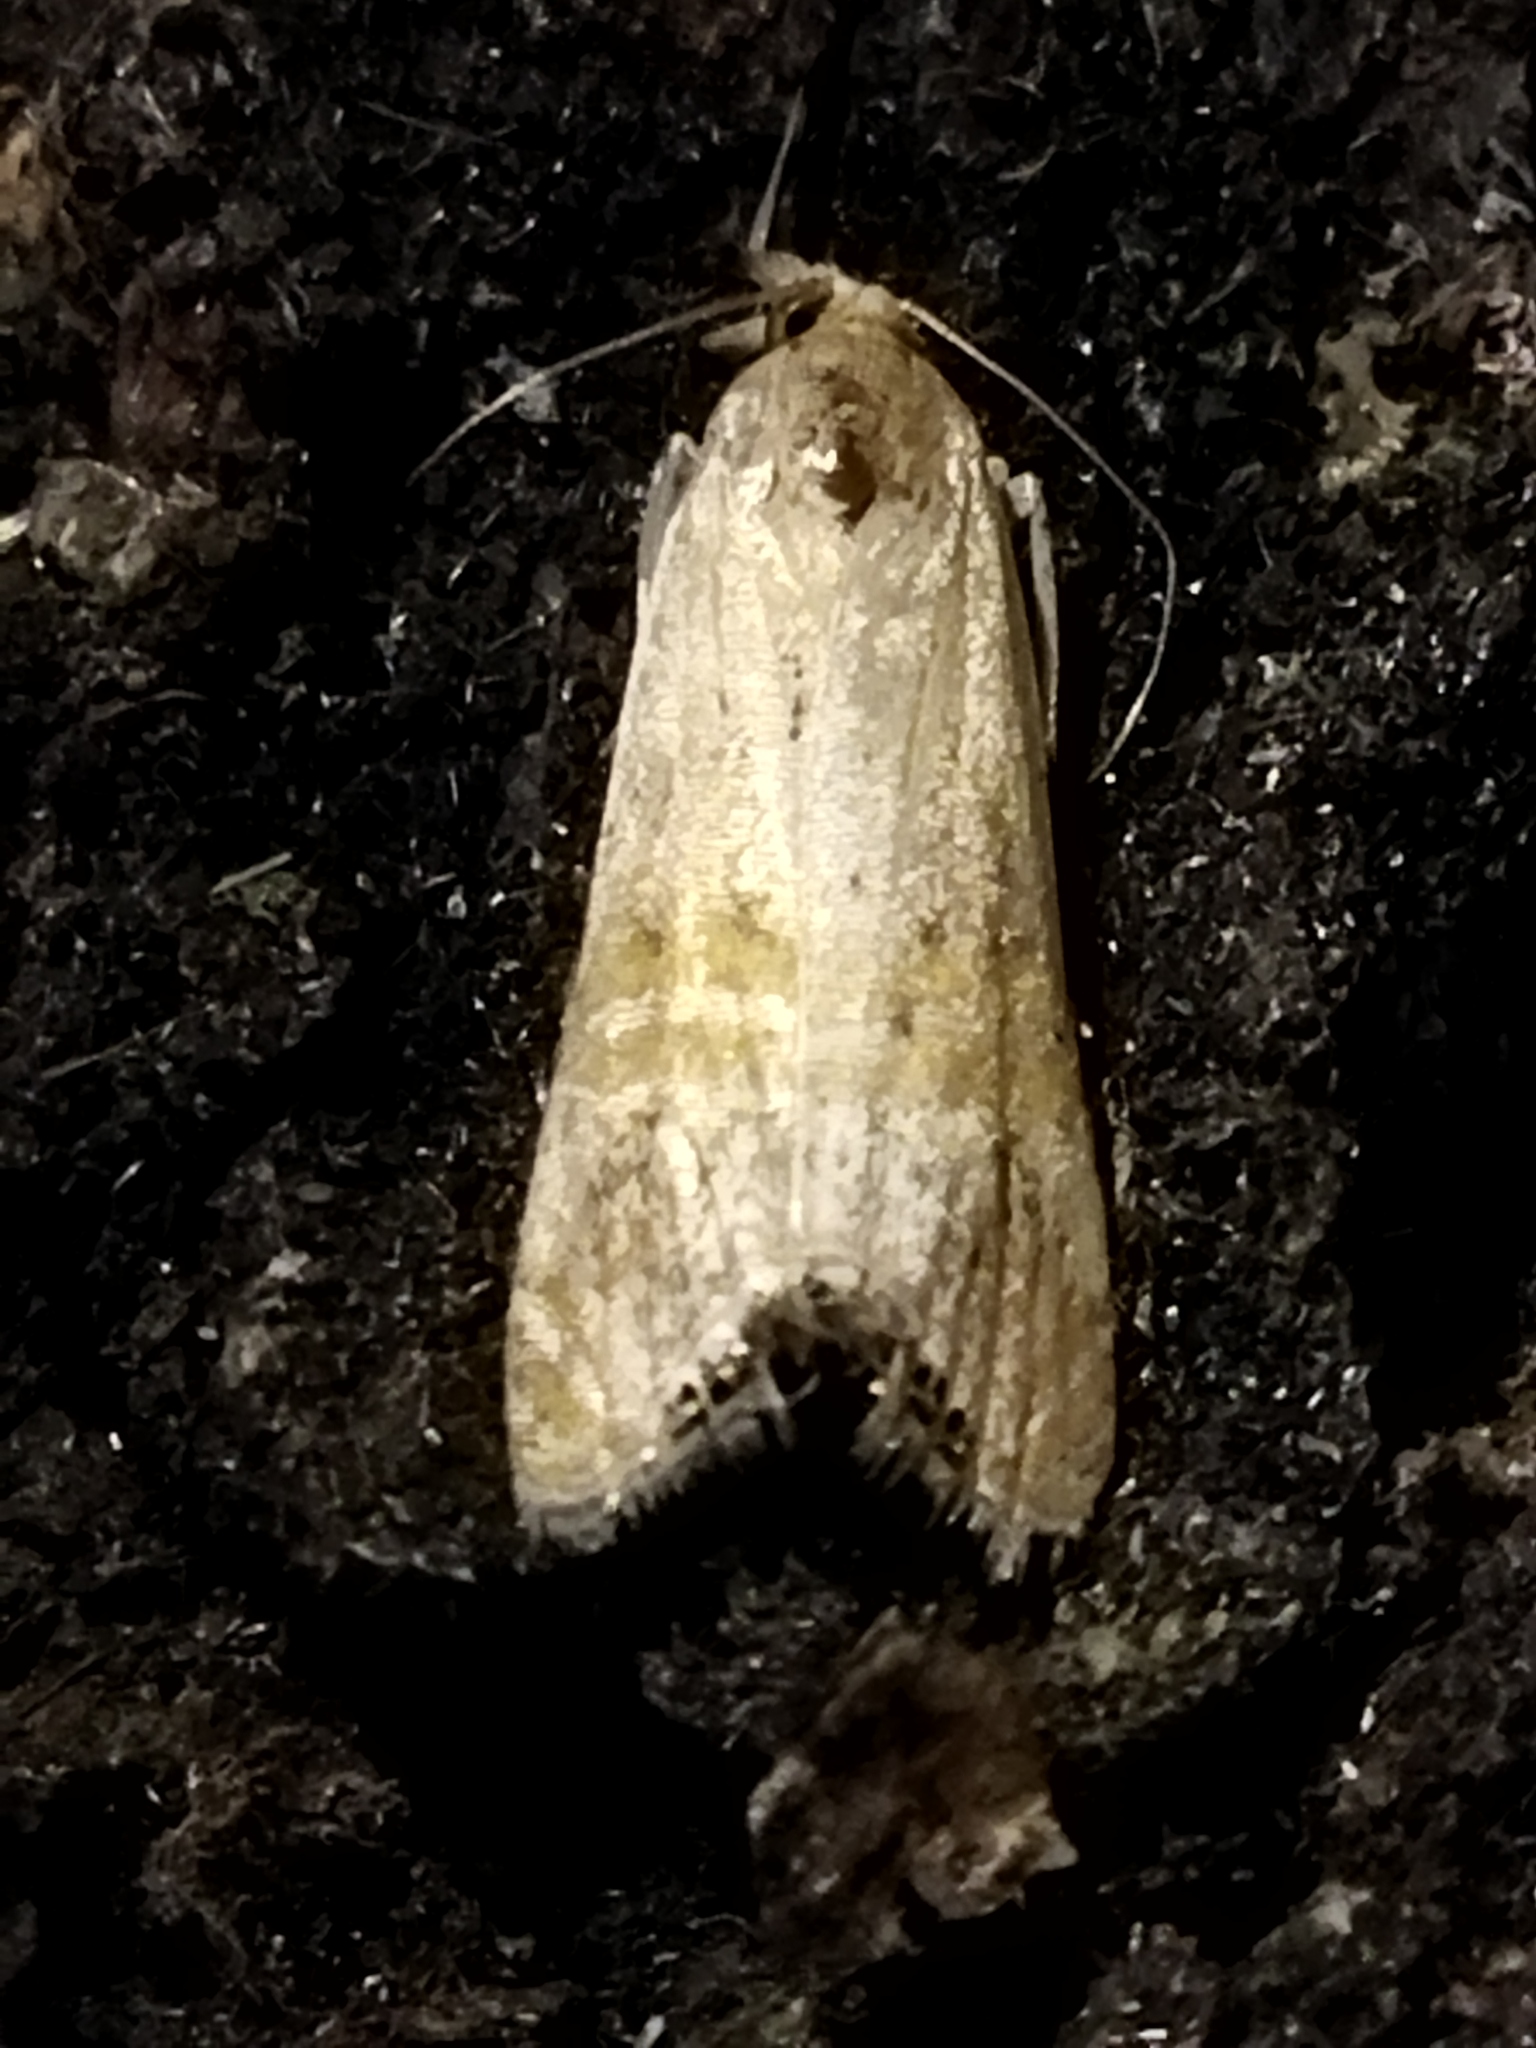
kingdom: Animalia
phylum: Arthropoda
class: Insecta
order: Lepidoptera
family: Crambidae
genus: Euchromius
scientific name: Euchromius ocellea
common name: Necklace veneer moth
